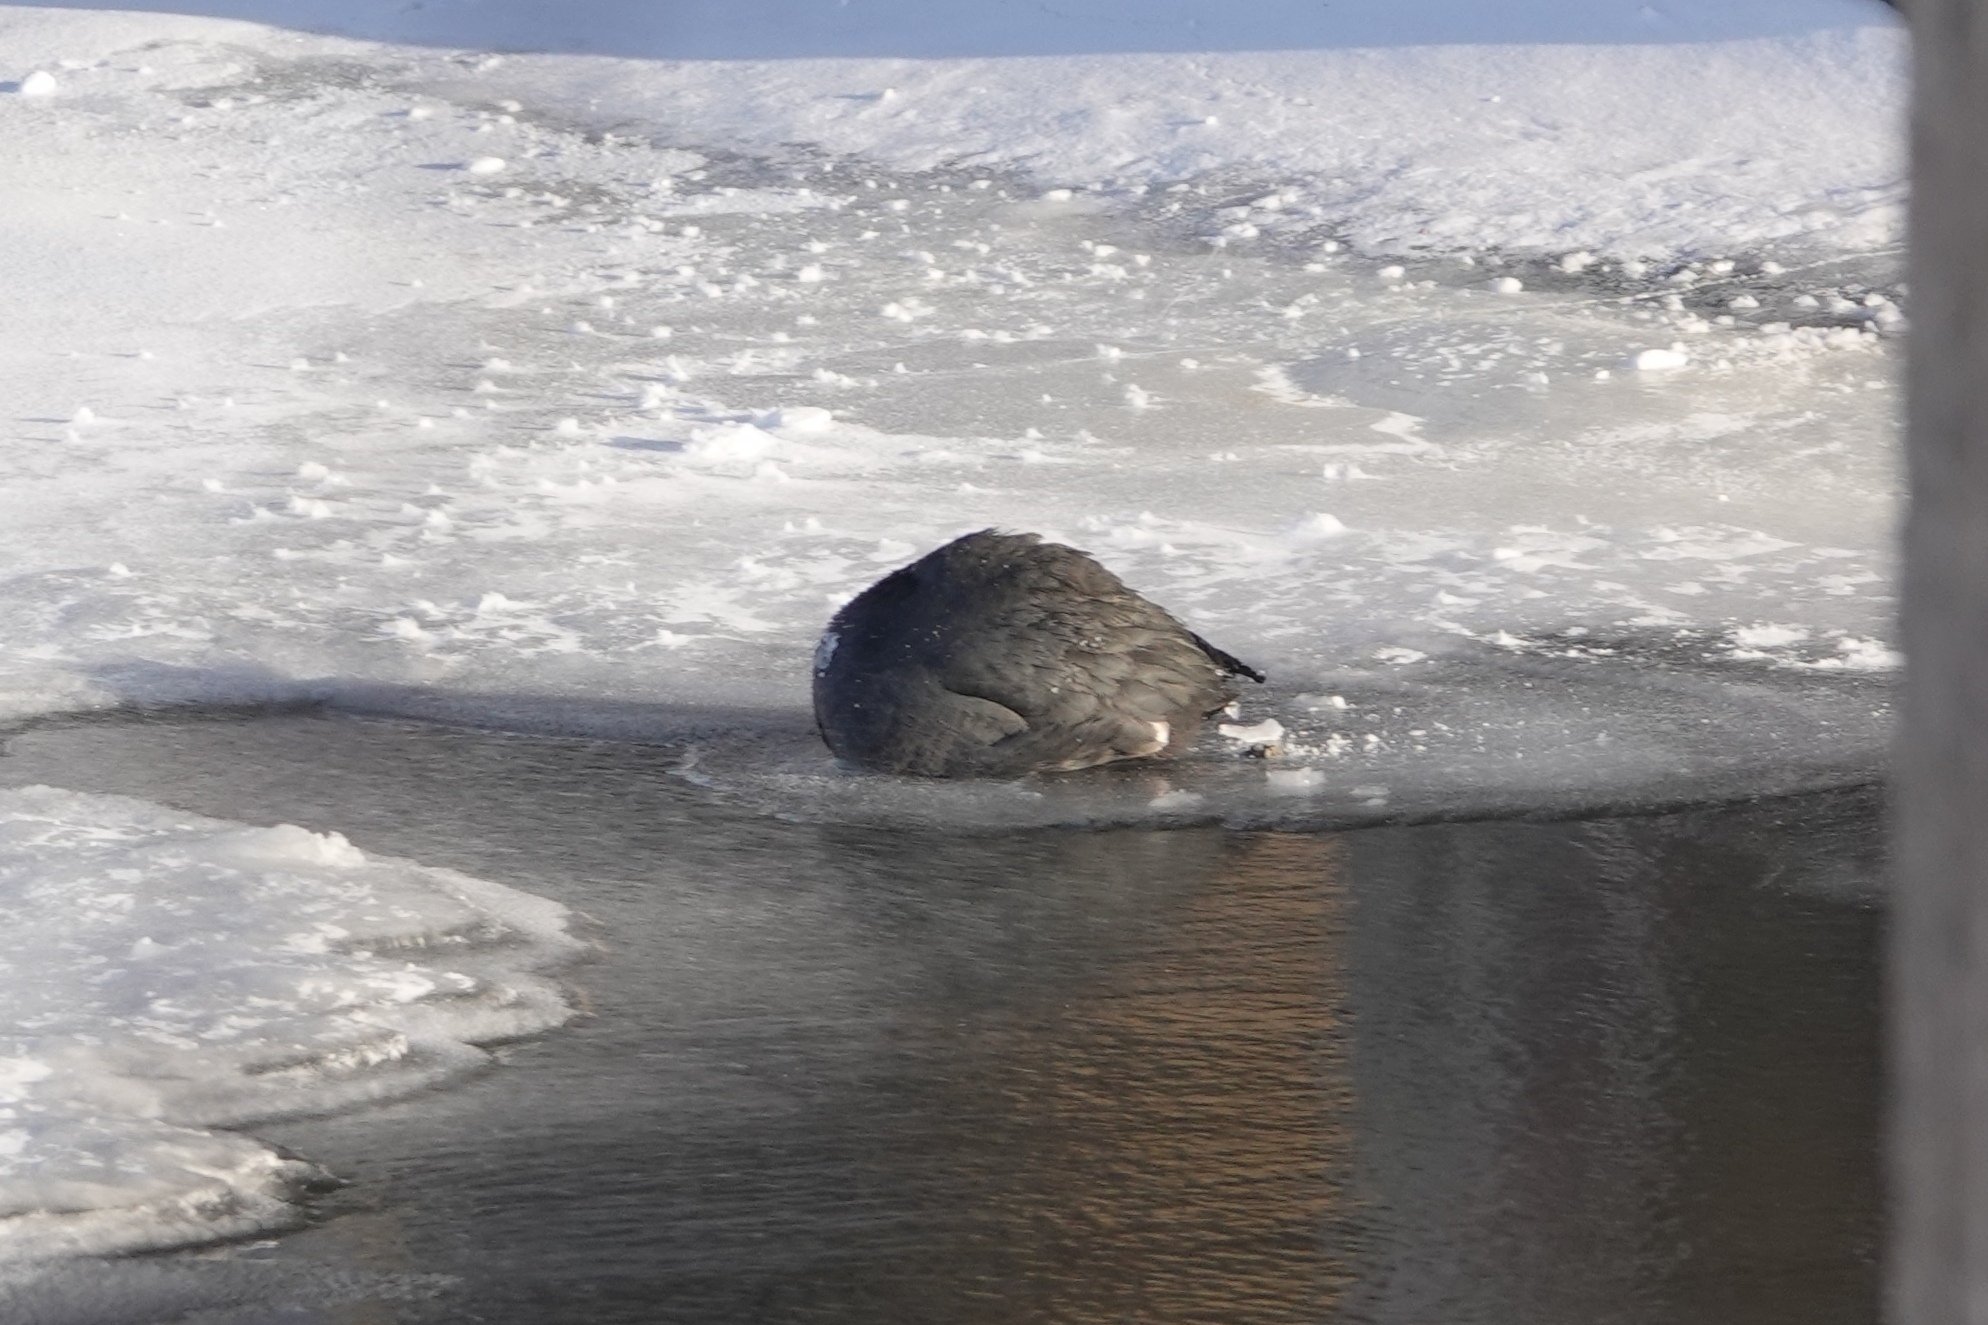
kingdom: Animalia
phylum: Chordata
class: Aves
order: Gruiformes
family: Rallidae
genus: Fulica
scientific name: Fulica atra
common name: Eurasian coot
